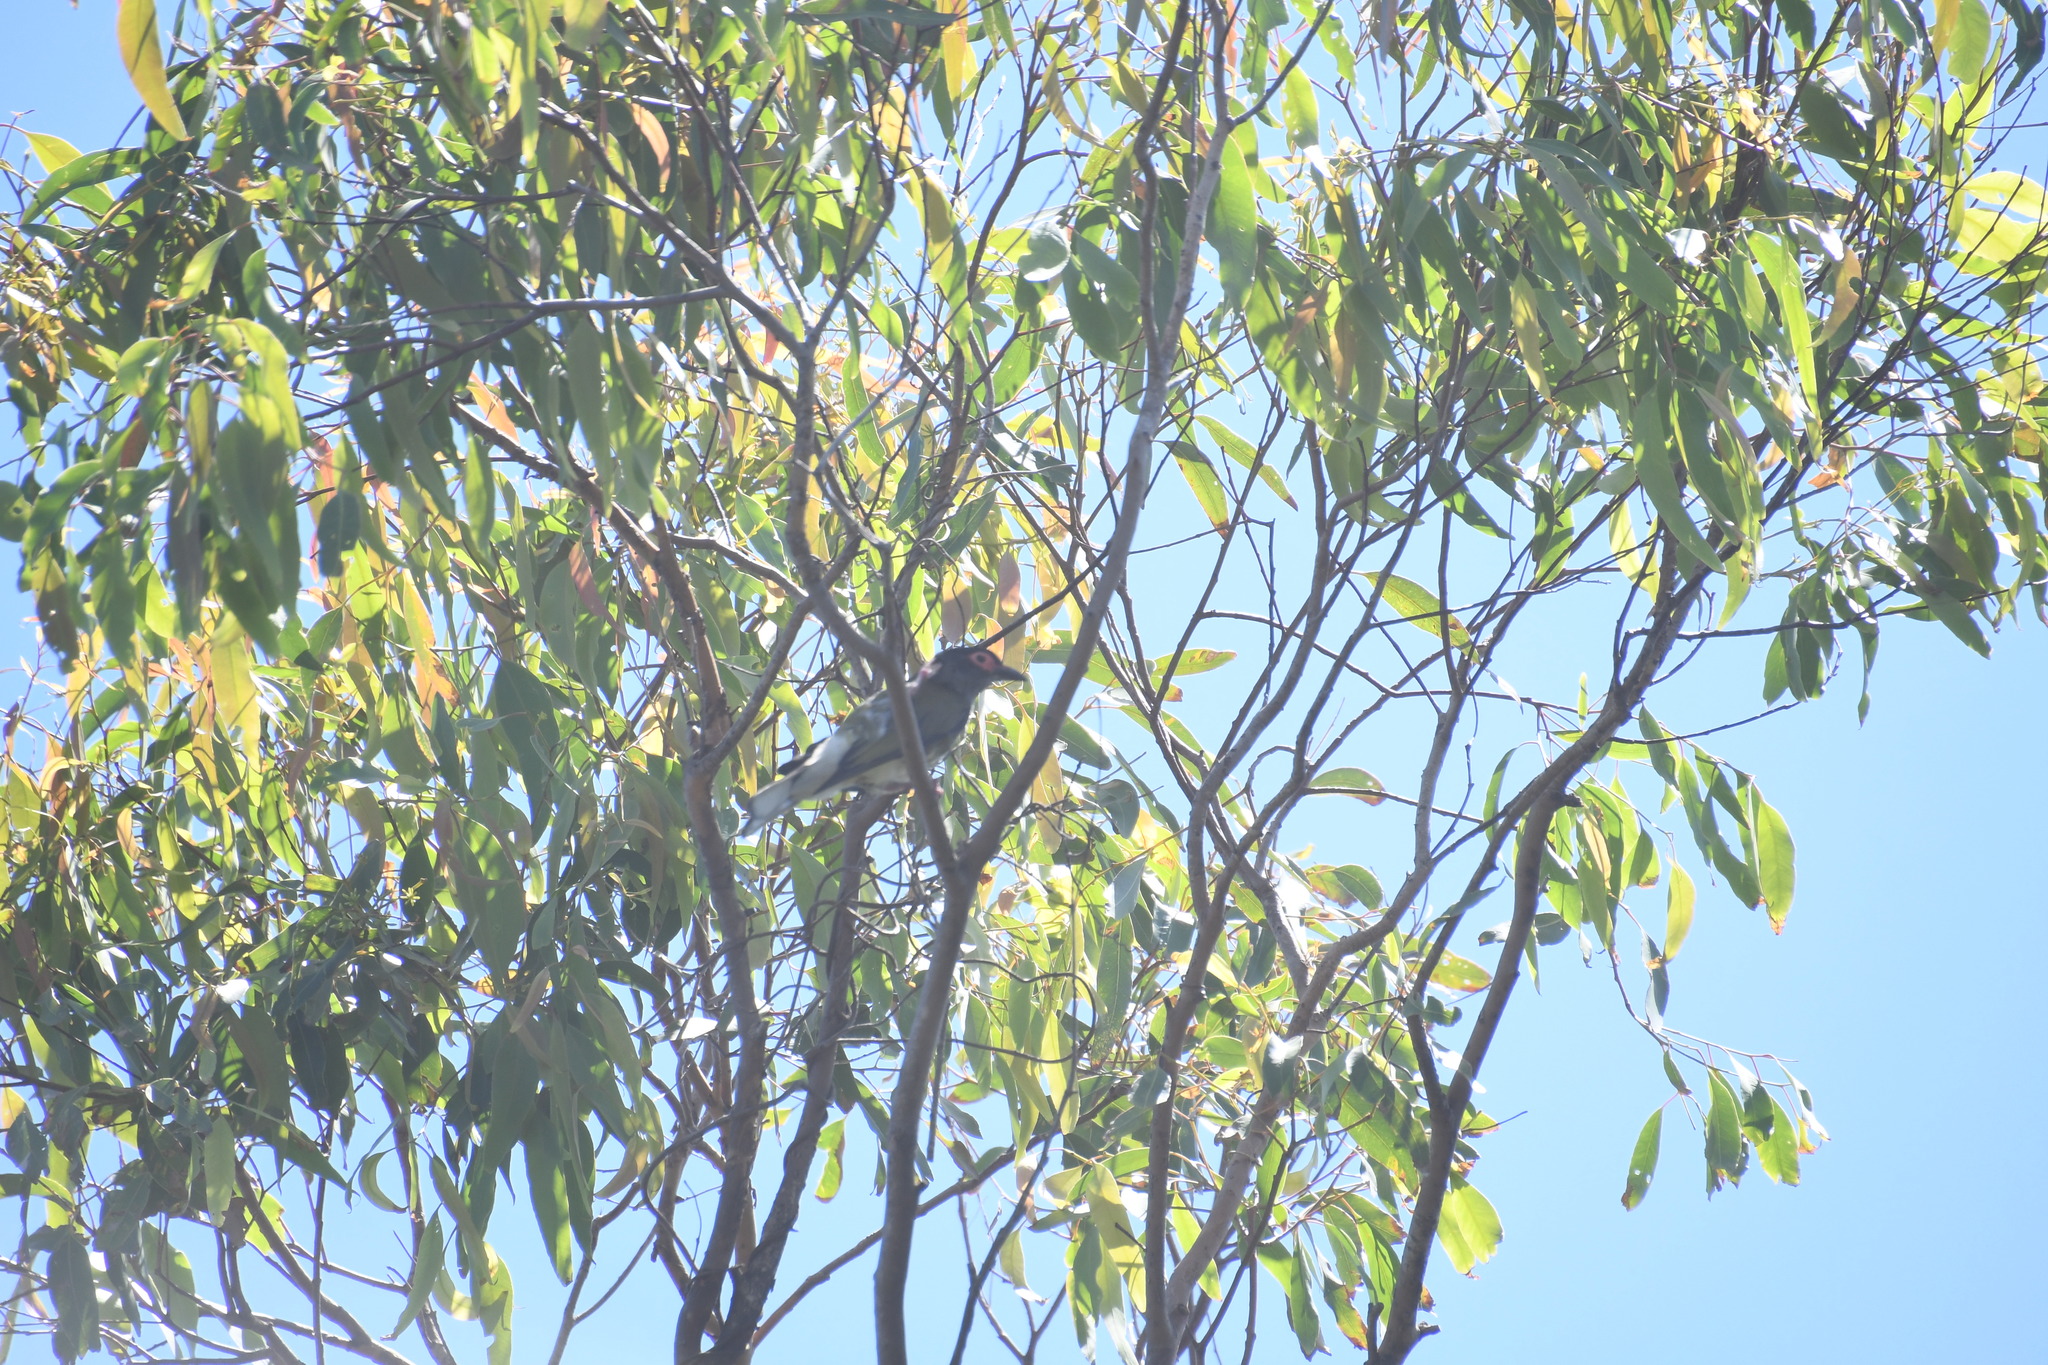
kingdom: Animalia
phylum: Chordata
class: Aves
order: Passeriformes
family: Oriolidae
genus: Sphecotheres
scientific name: Sphecotheres vieilloti
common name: Australasian figbird
